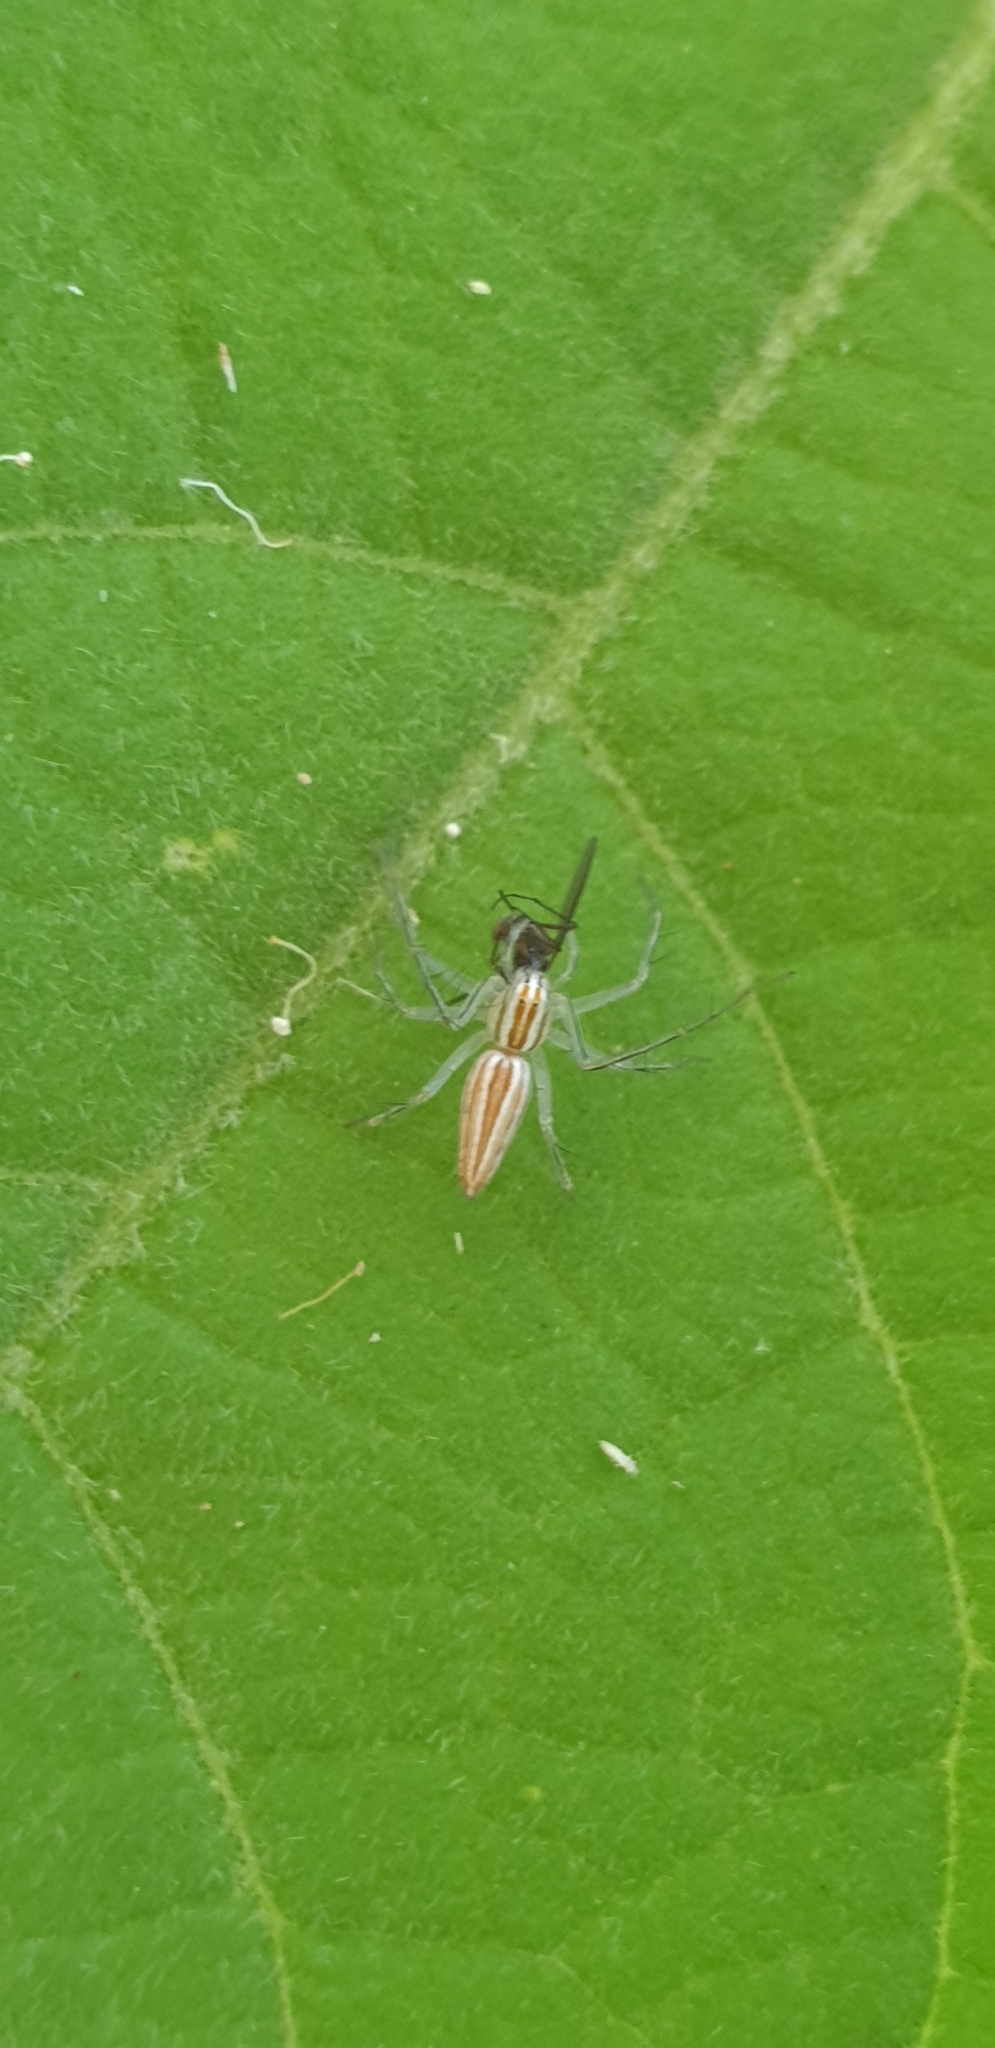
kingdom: Animalia
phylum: Arthropoda
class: Arachnida
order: Araneae
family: Oxyopidae
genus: Oxyopes
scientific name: Oxyopes macilentus
